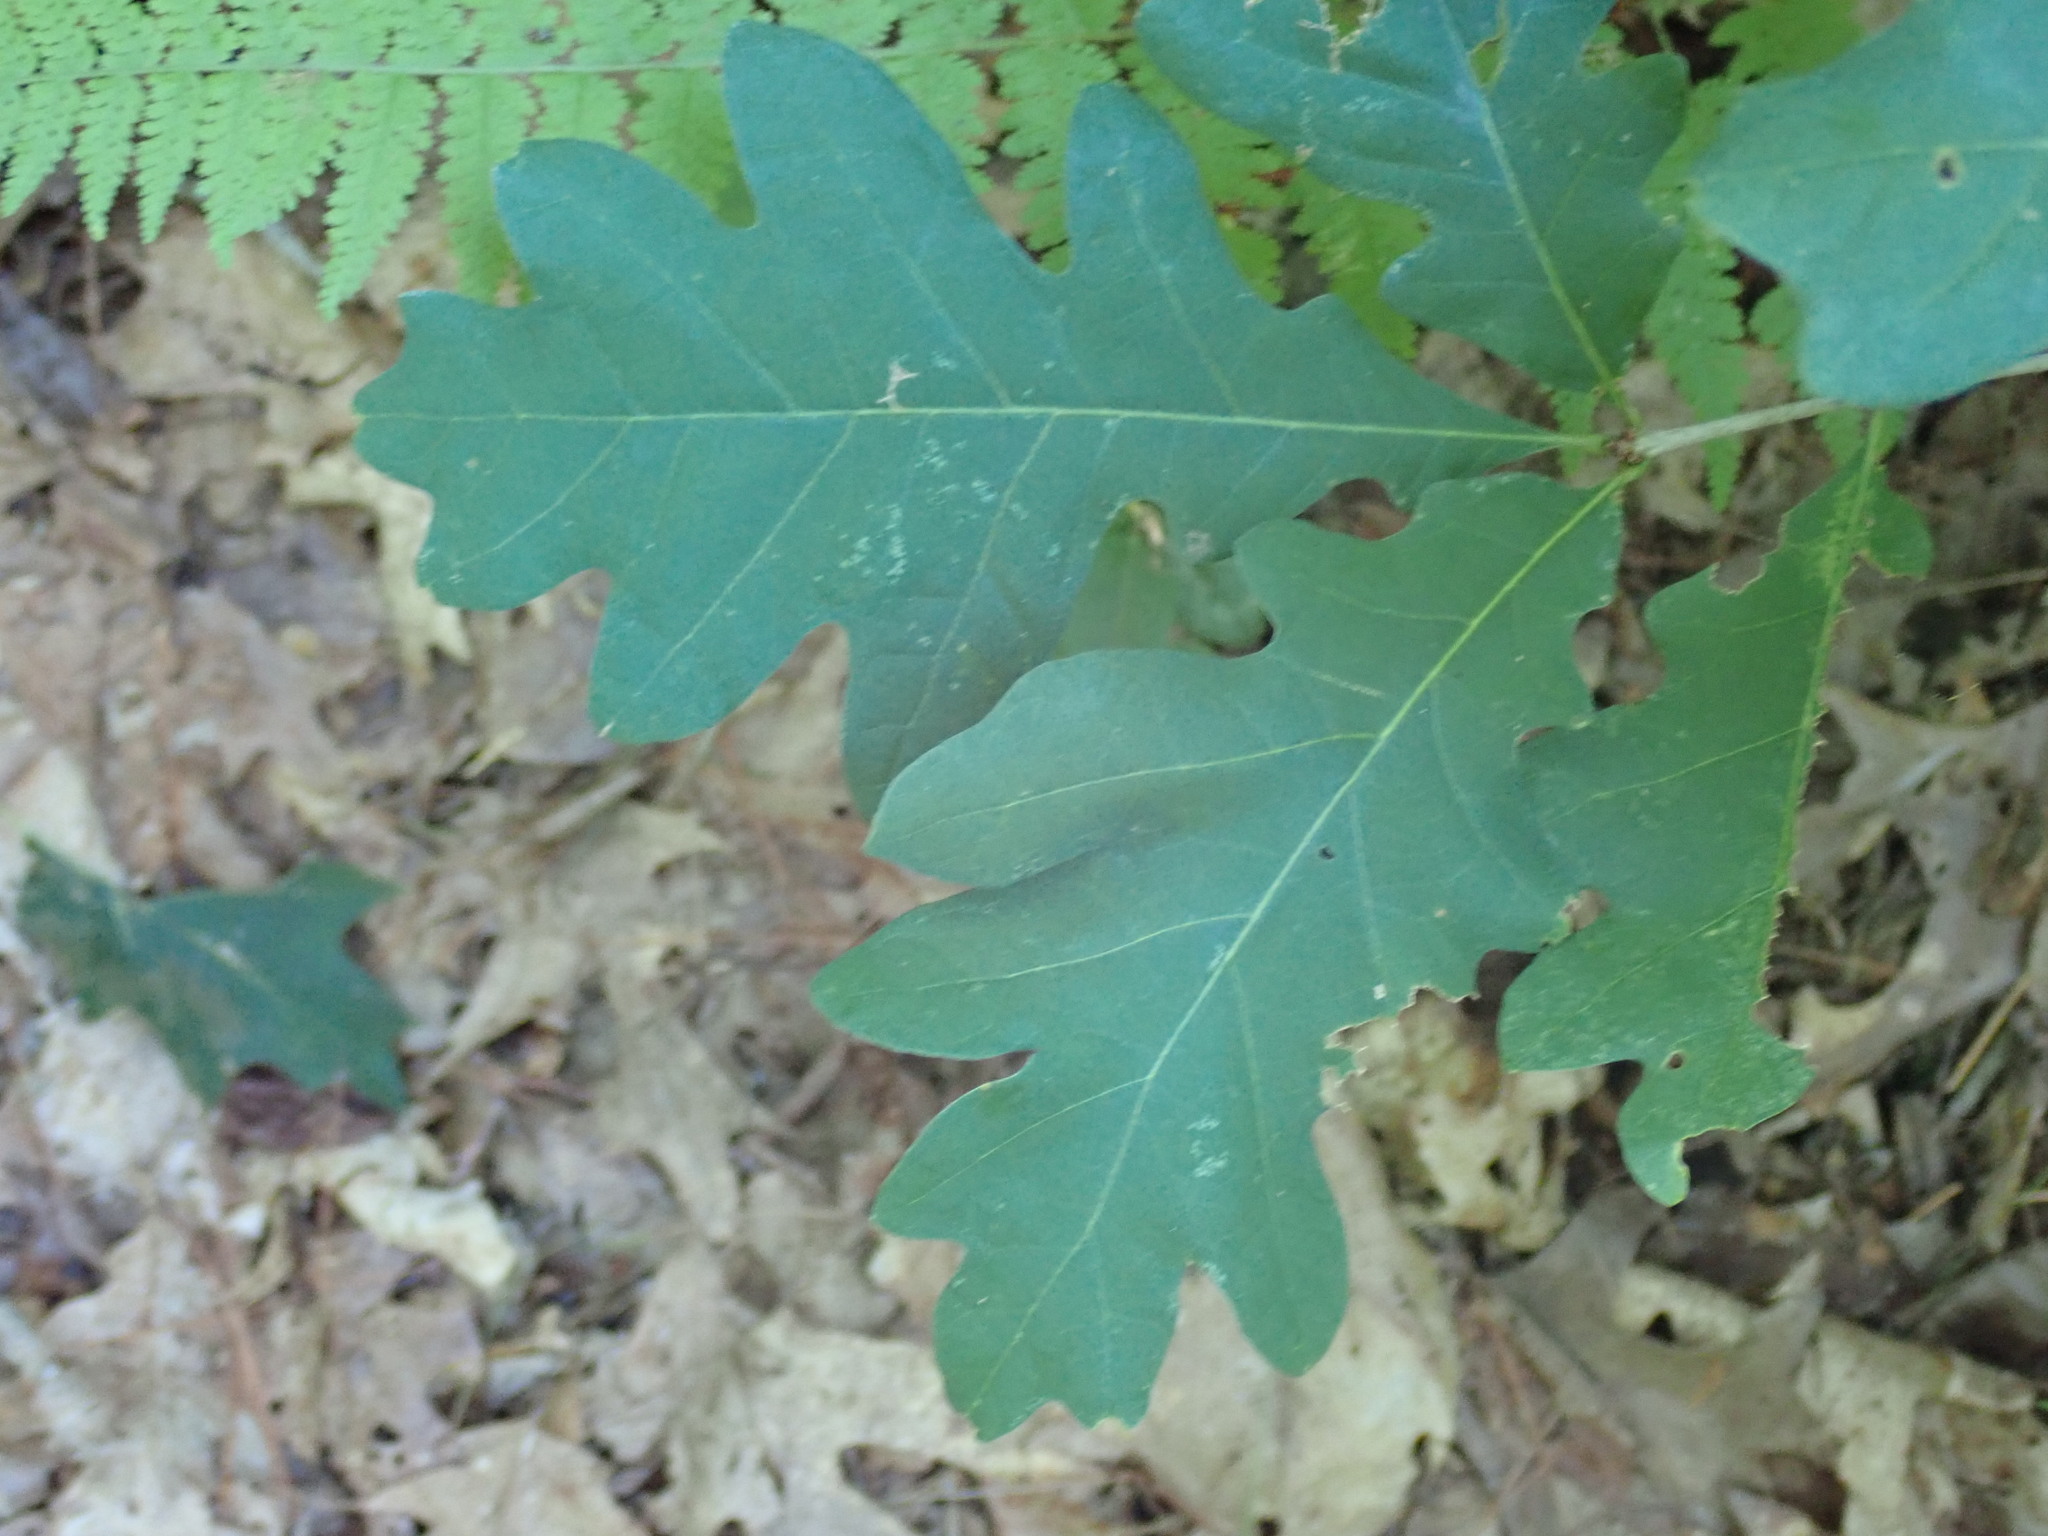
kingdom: Plantae
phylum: Tracheophyta
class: Magnoliopsida
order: Fagales
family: Fagaceae
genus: Quercus
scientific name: Quercus alba
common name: White oak
